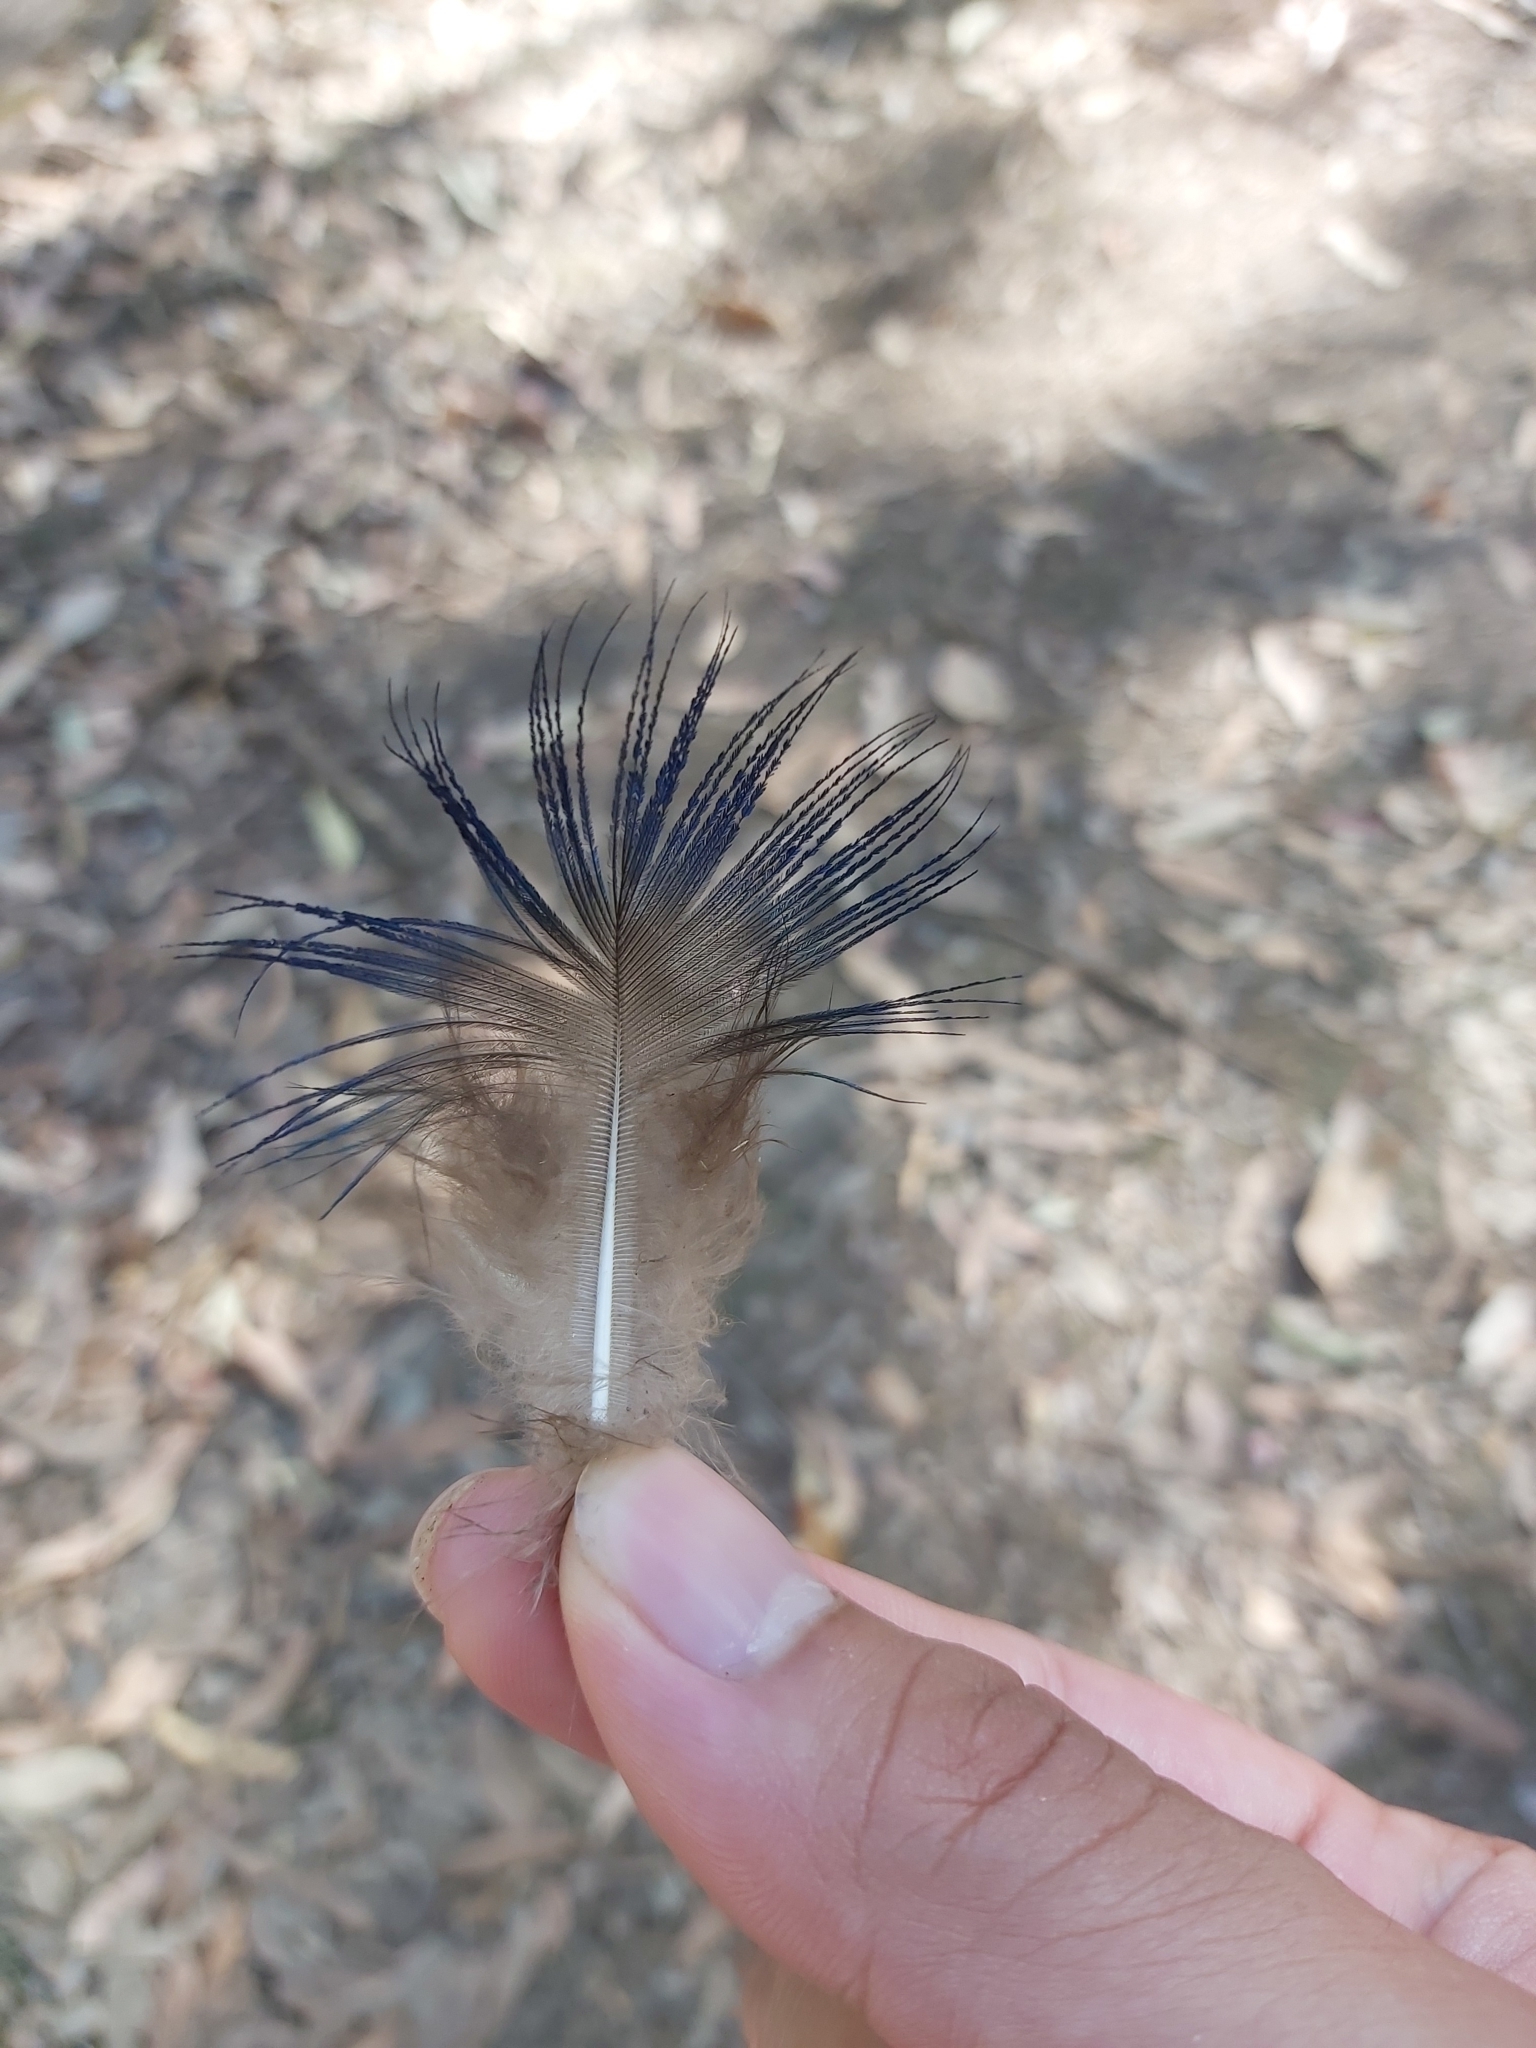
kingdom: Animalia
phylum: Chordata
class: Aves
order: Galliformes
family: Phasianidae
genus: Pavo
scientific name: Pavo cristatus
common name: Indian peafowl
